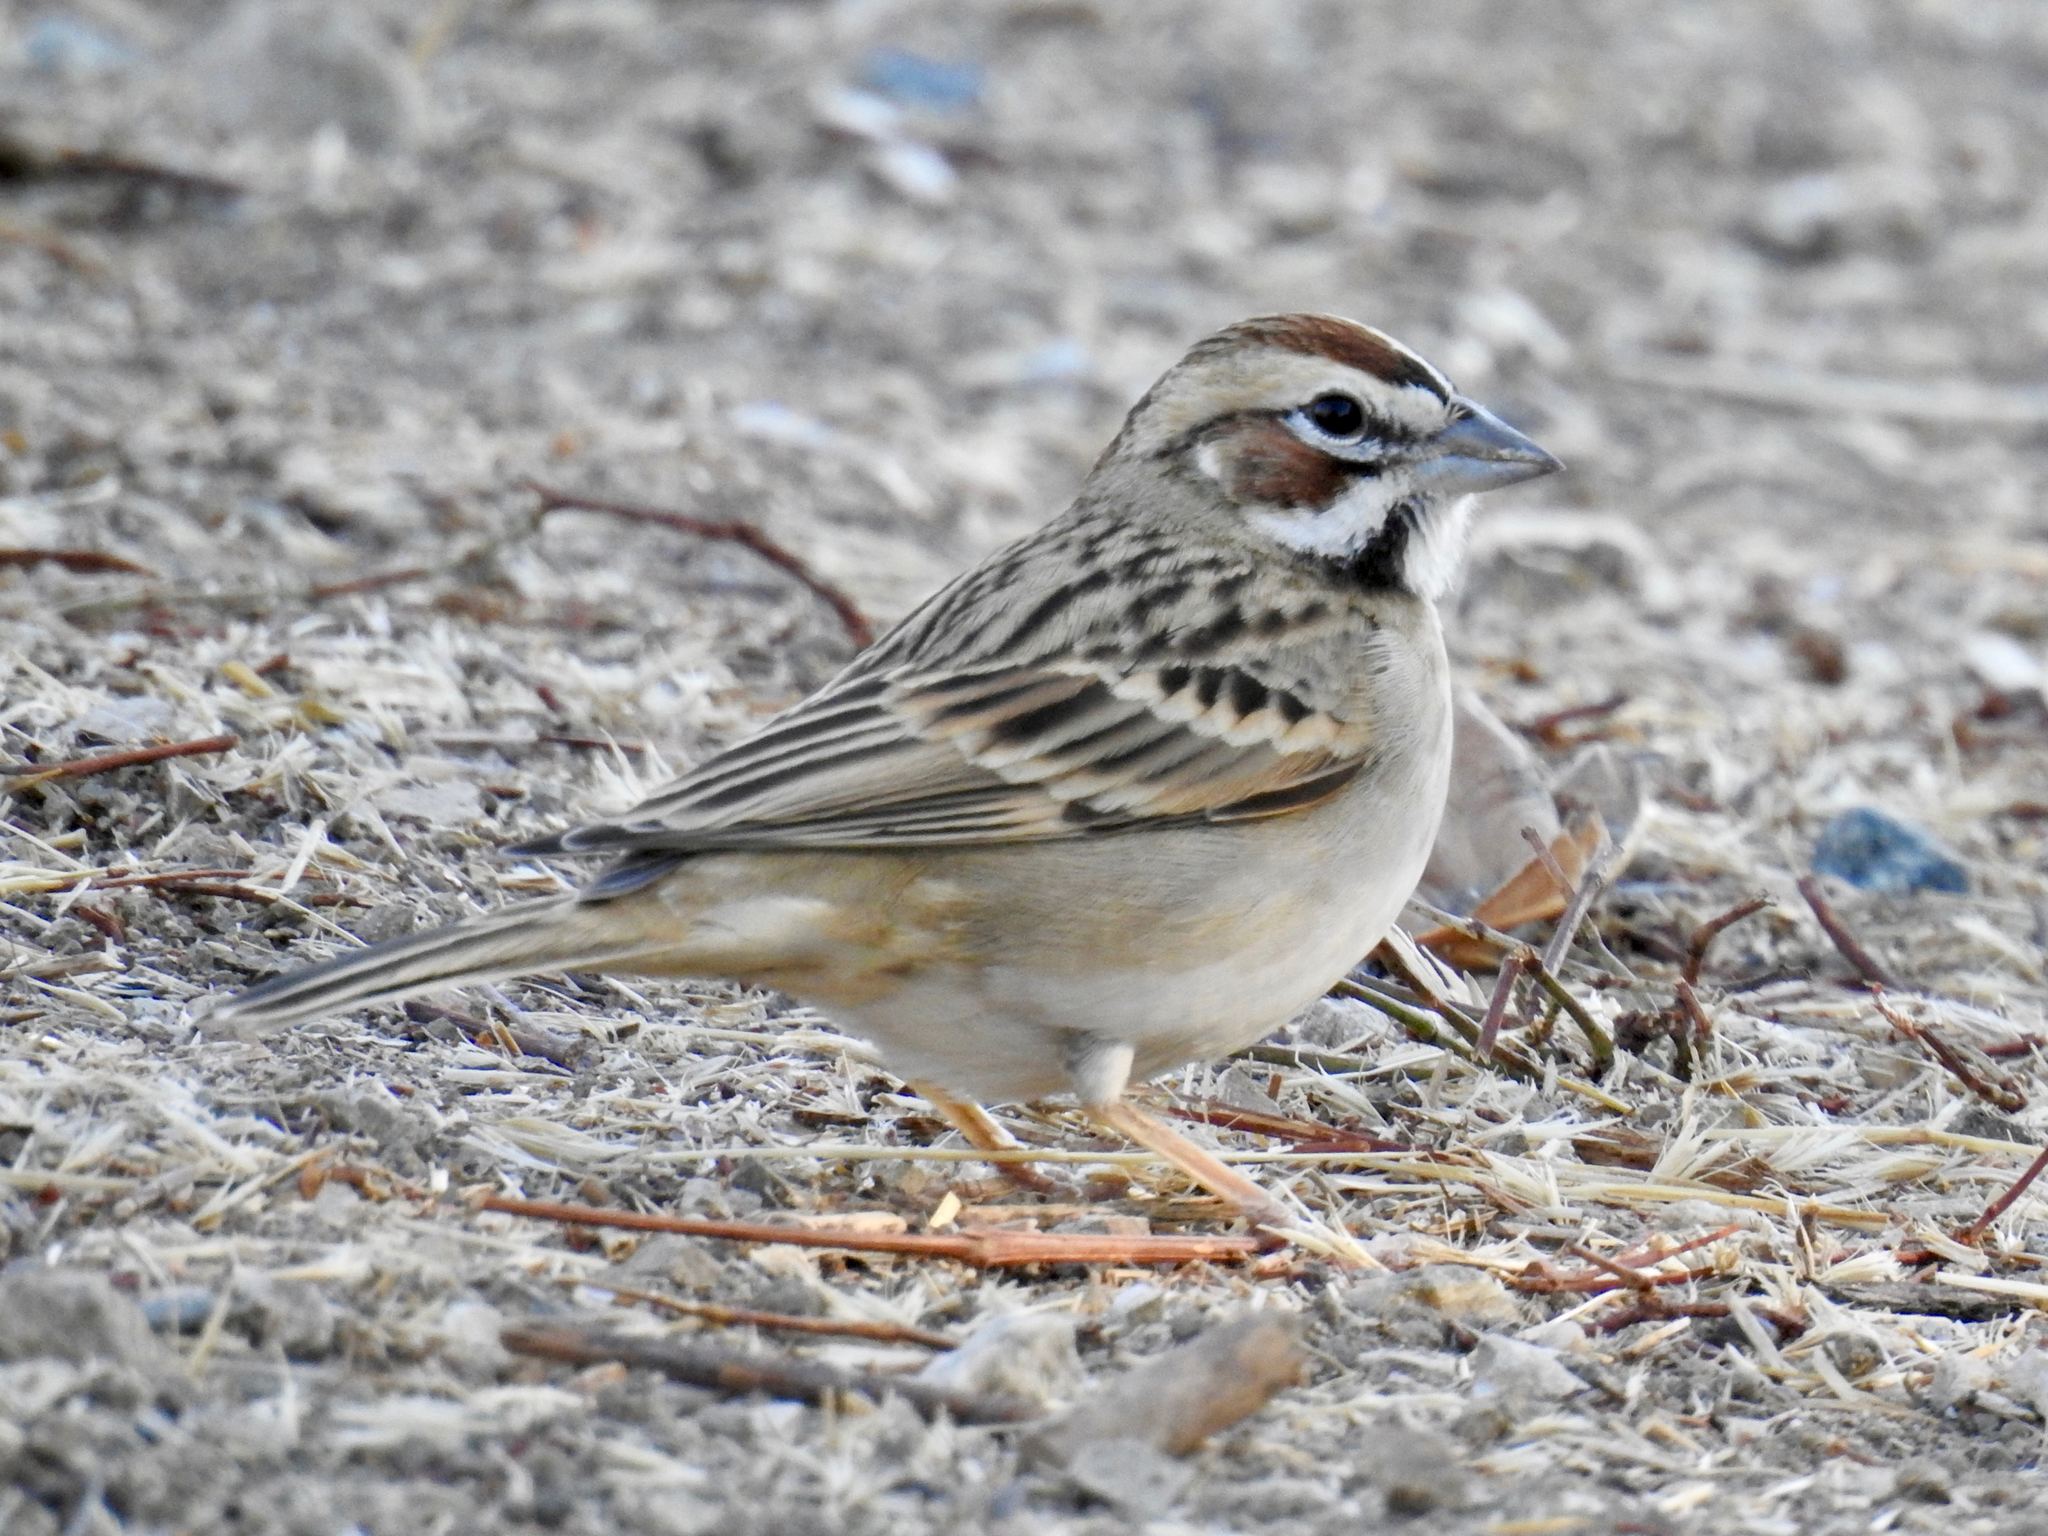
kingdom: Animalia
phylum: Chordata
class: Aves
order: Passeriformes
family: Passerellidae
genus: Chondestes
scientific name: Chondestes grammacus
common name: Lark sparrow
